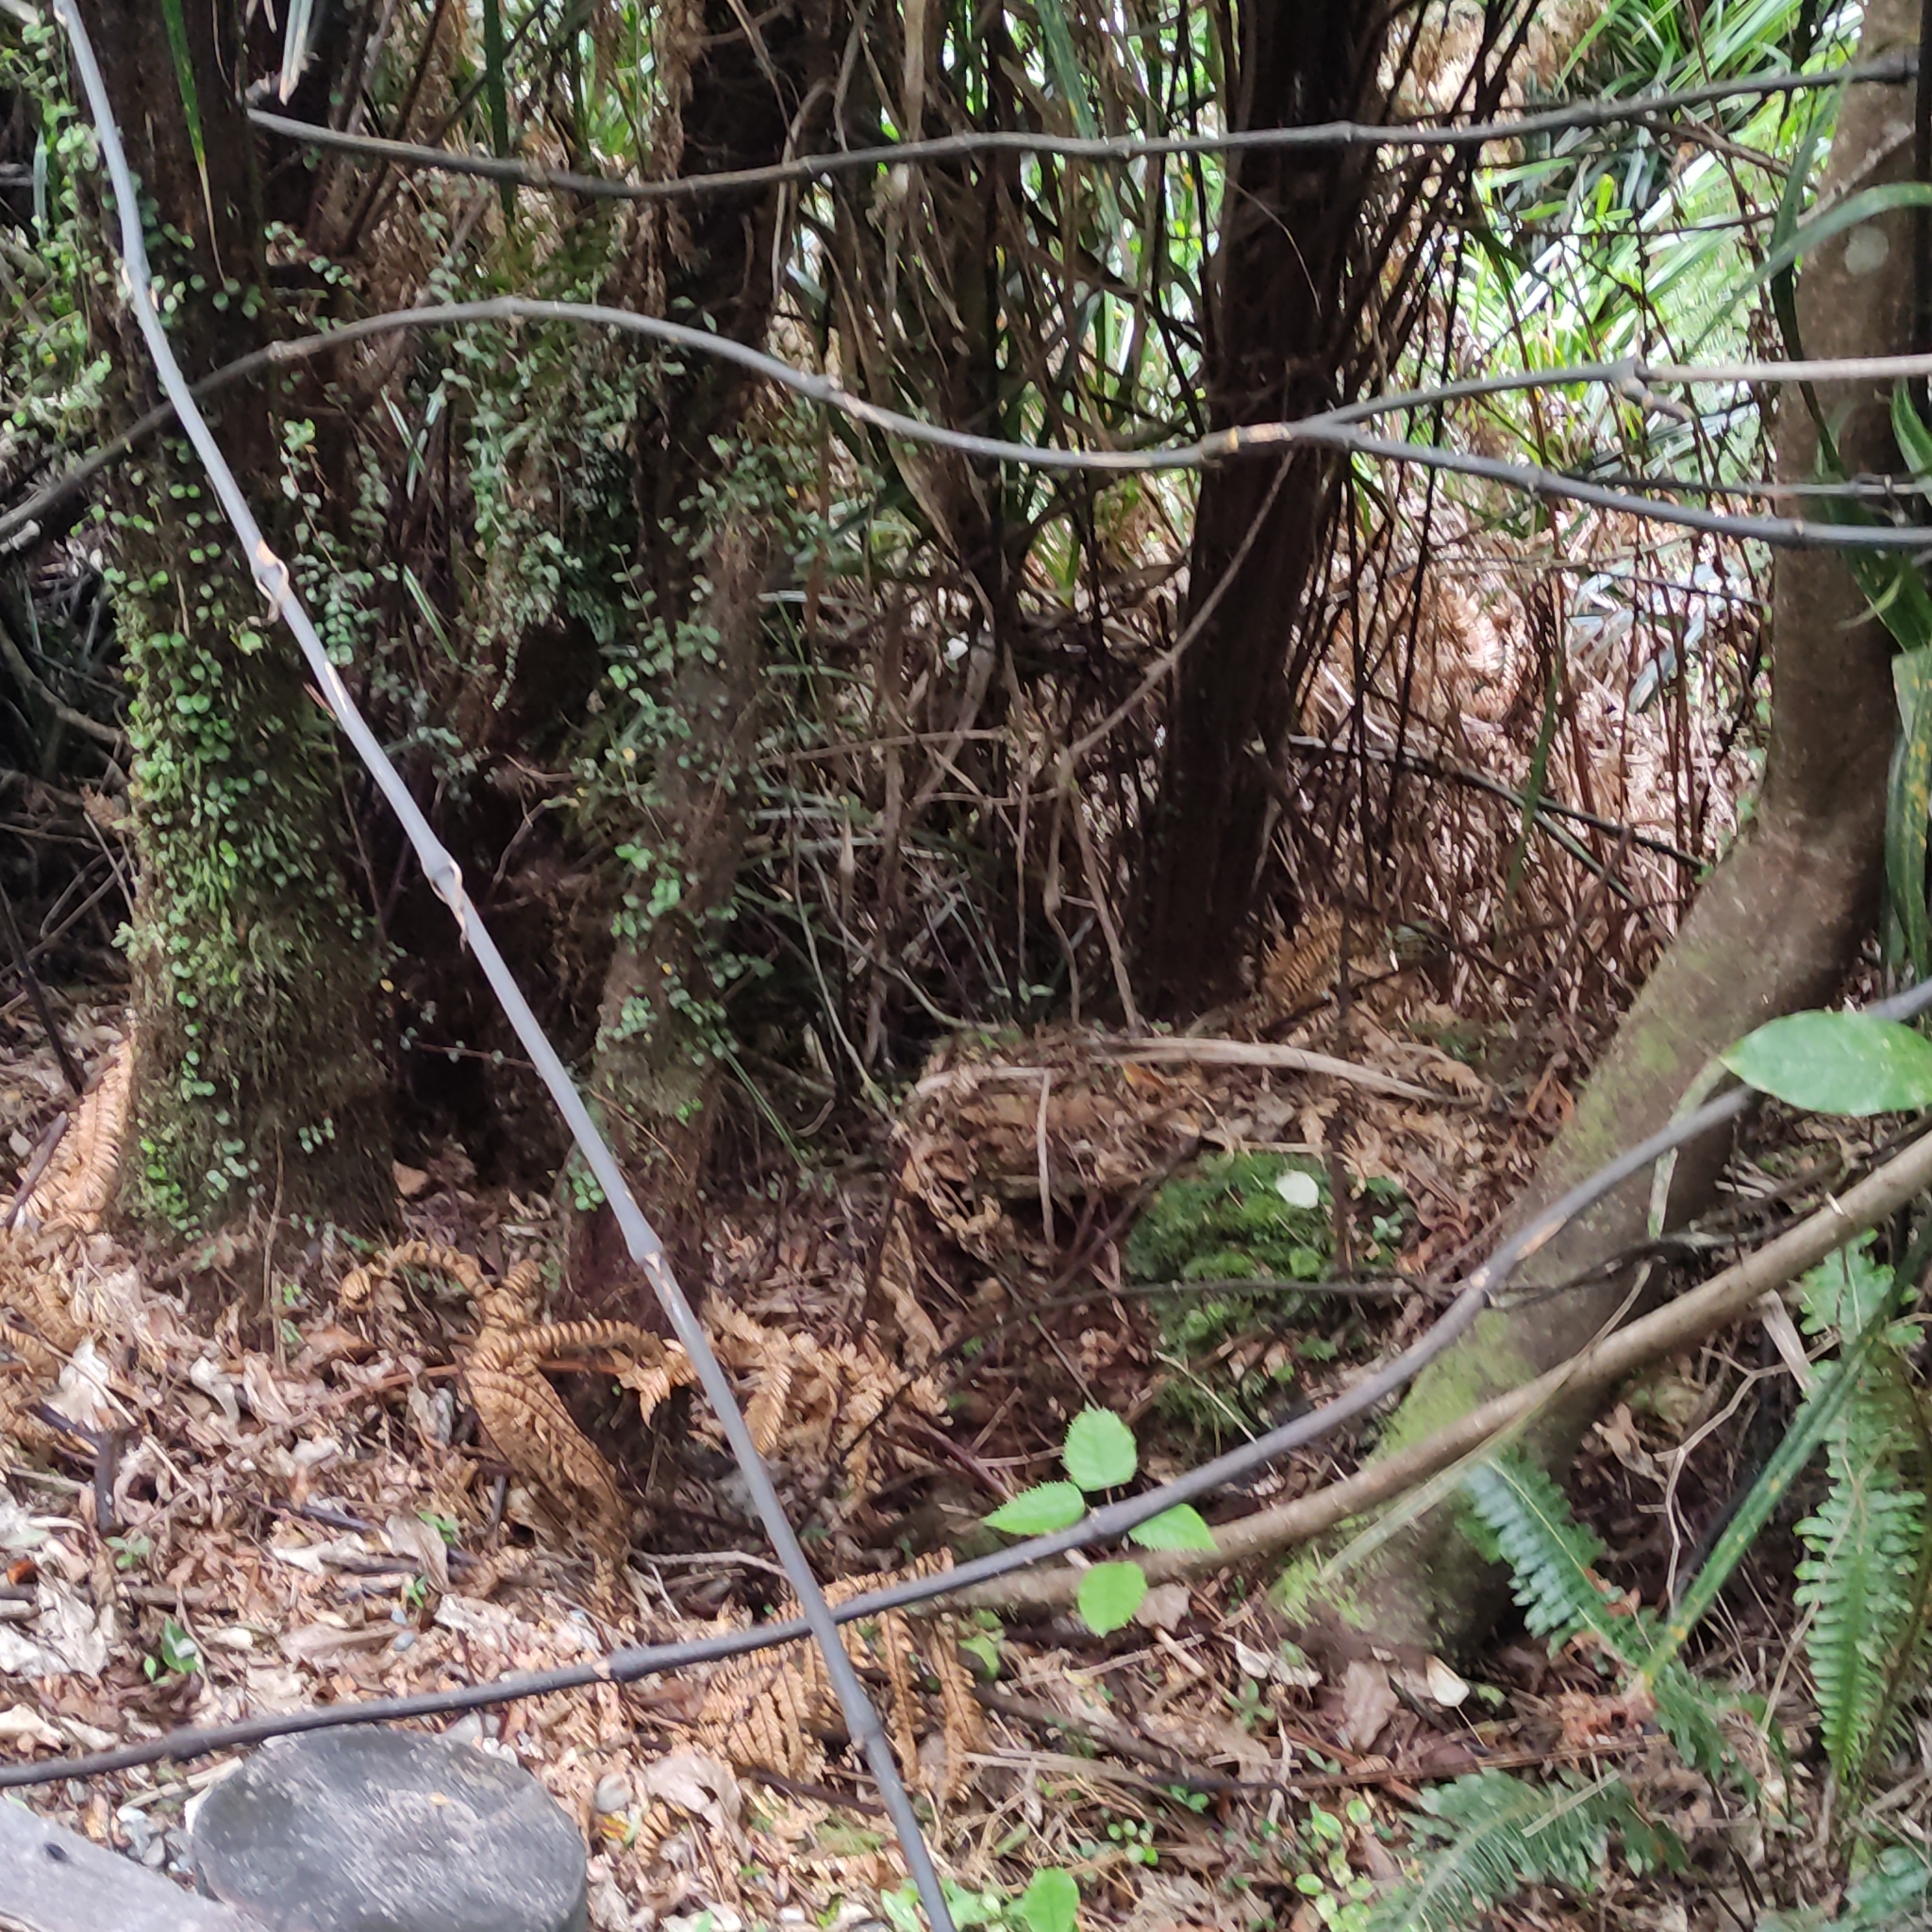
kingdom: Plantae
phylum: Tracheophyta
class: Liliopsida
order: Liliales
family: Ripogonaceae
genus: Ripogonum
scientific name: Ripogonum scandens
